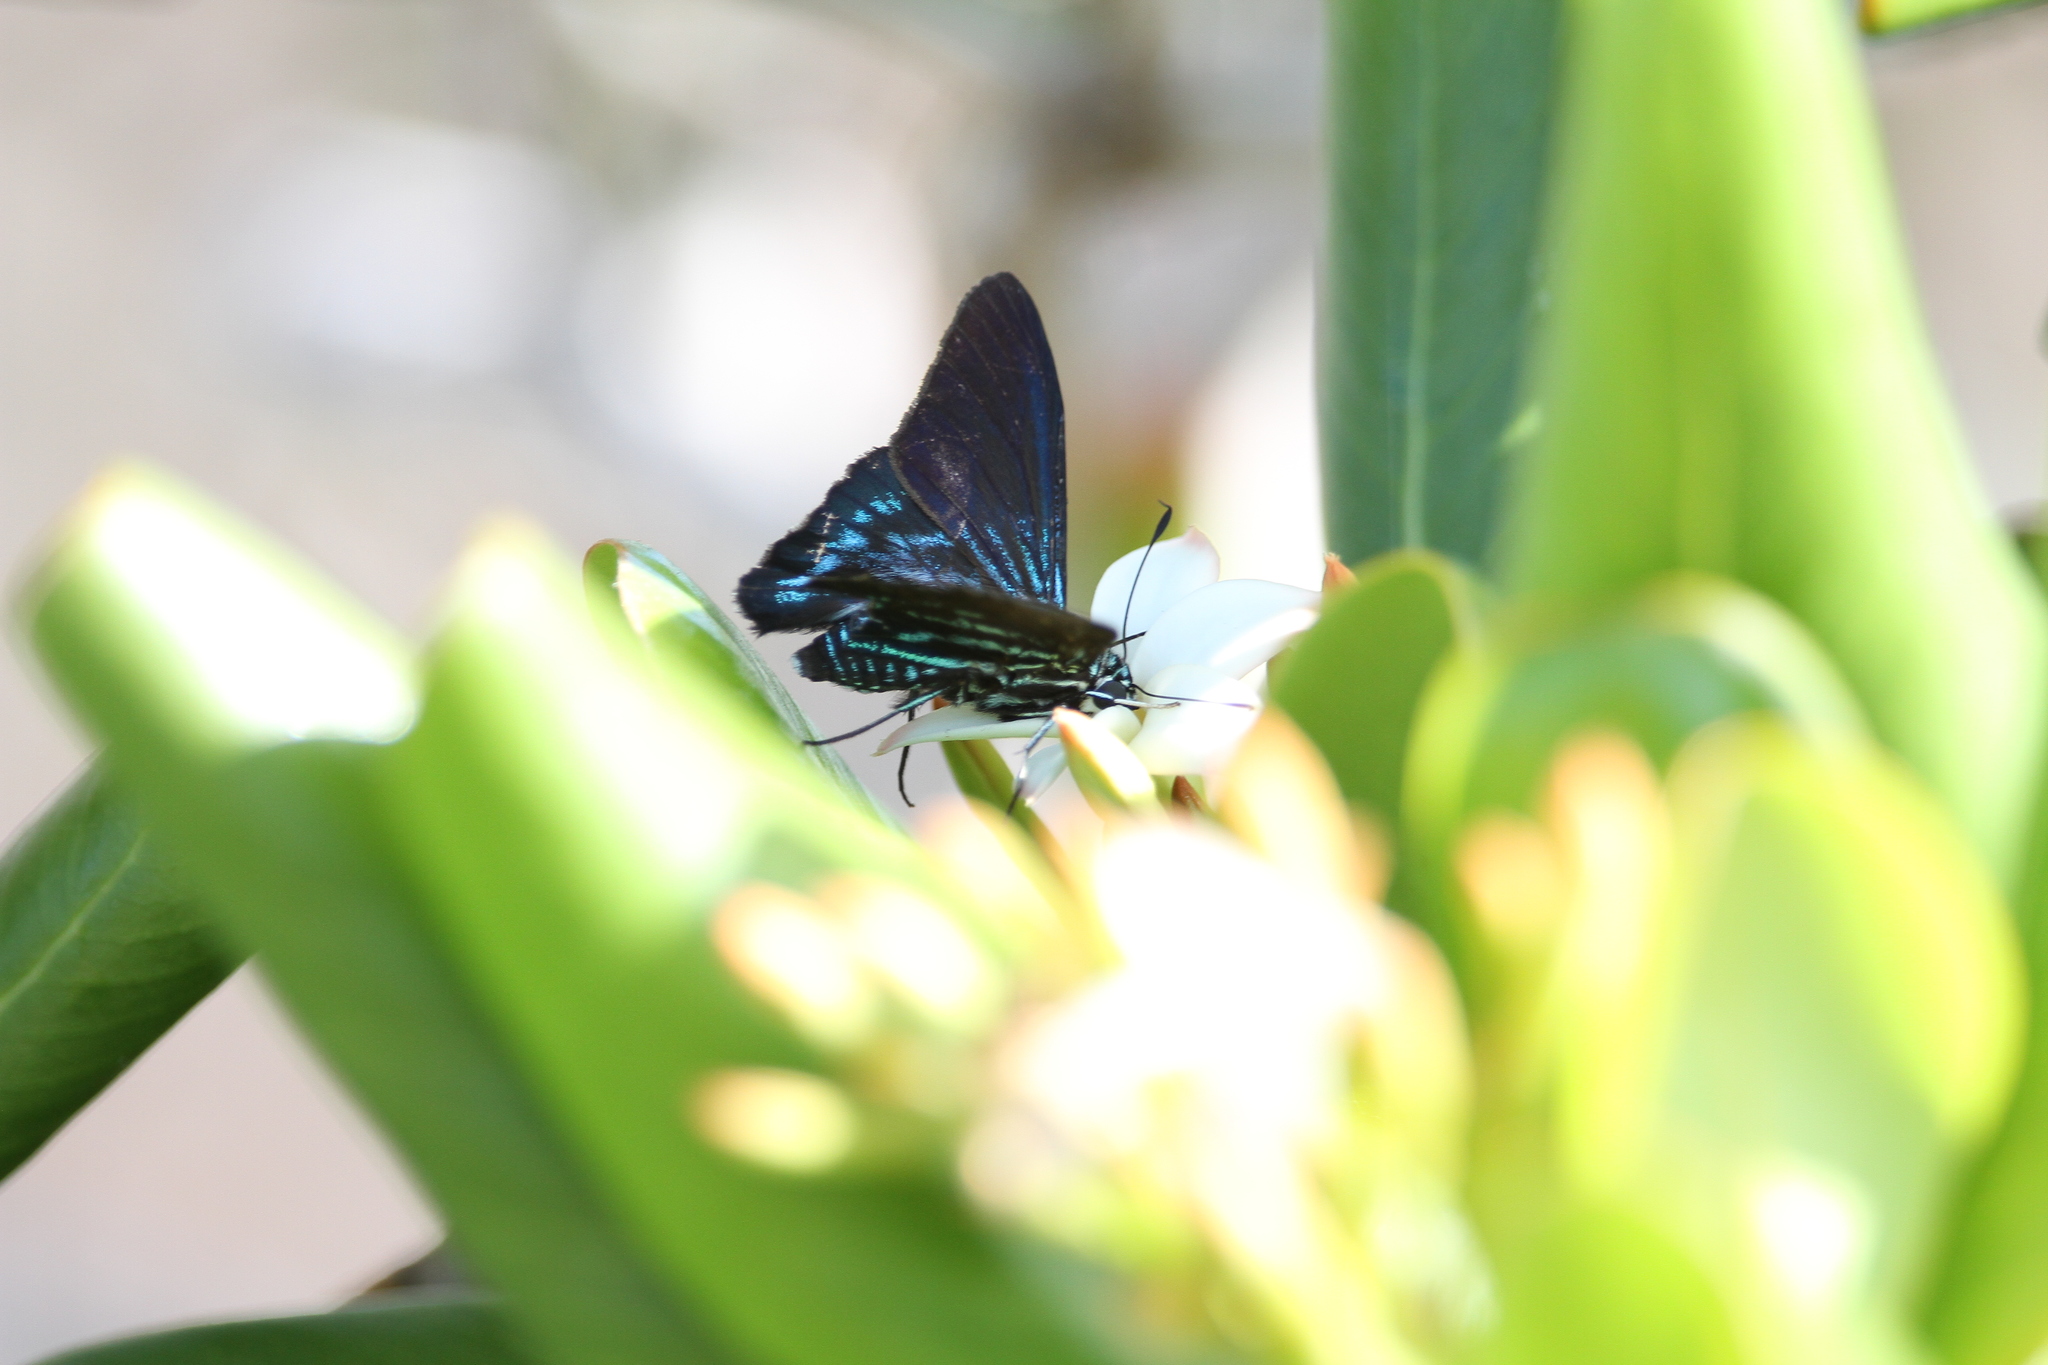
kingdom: Animalia
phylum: Arthropoda
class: Insecta
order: Lepidoptera
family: Hesperiidae
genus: Phocides
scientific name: Phocides pigmalion
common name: Mangrove skipper
